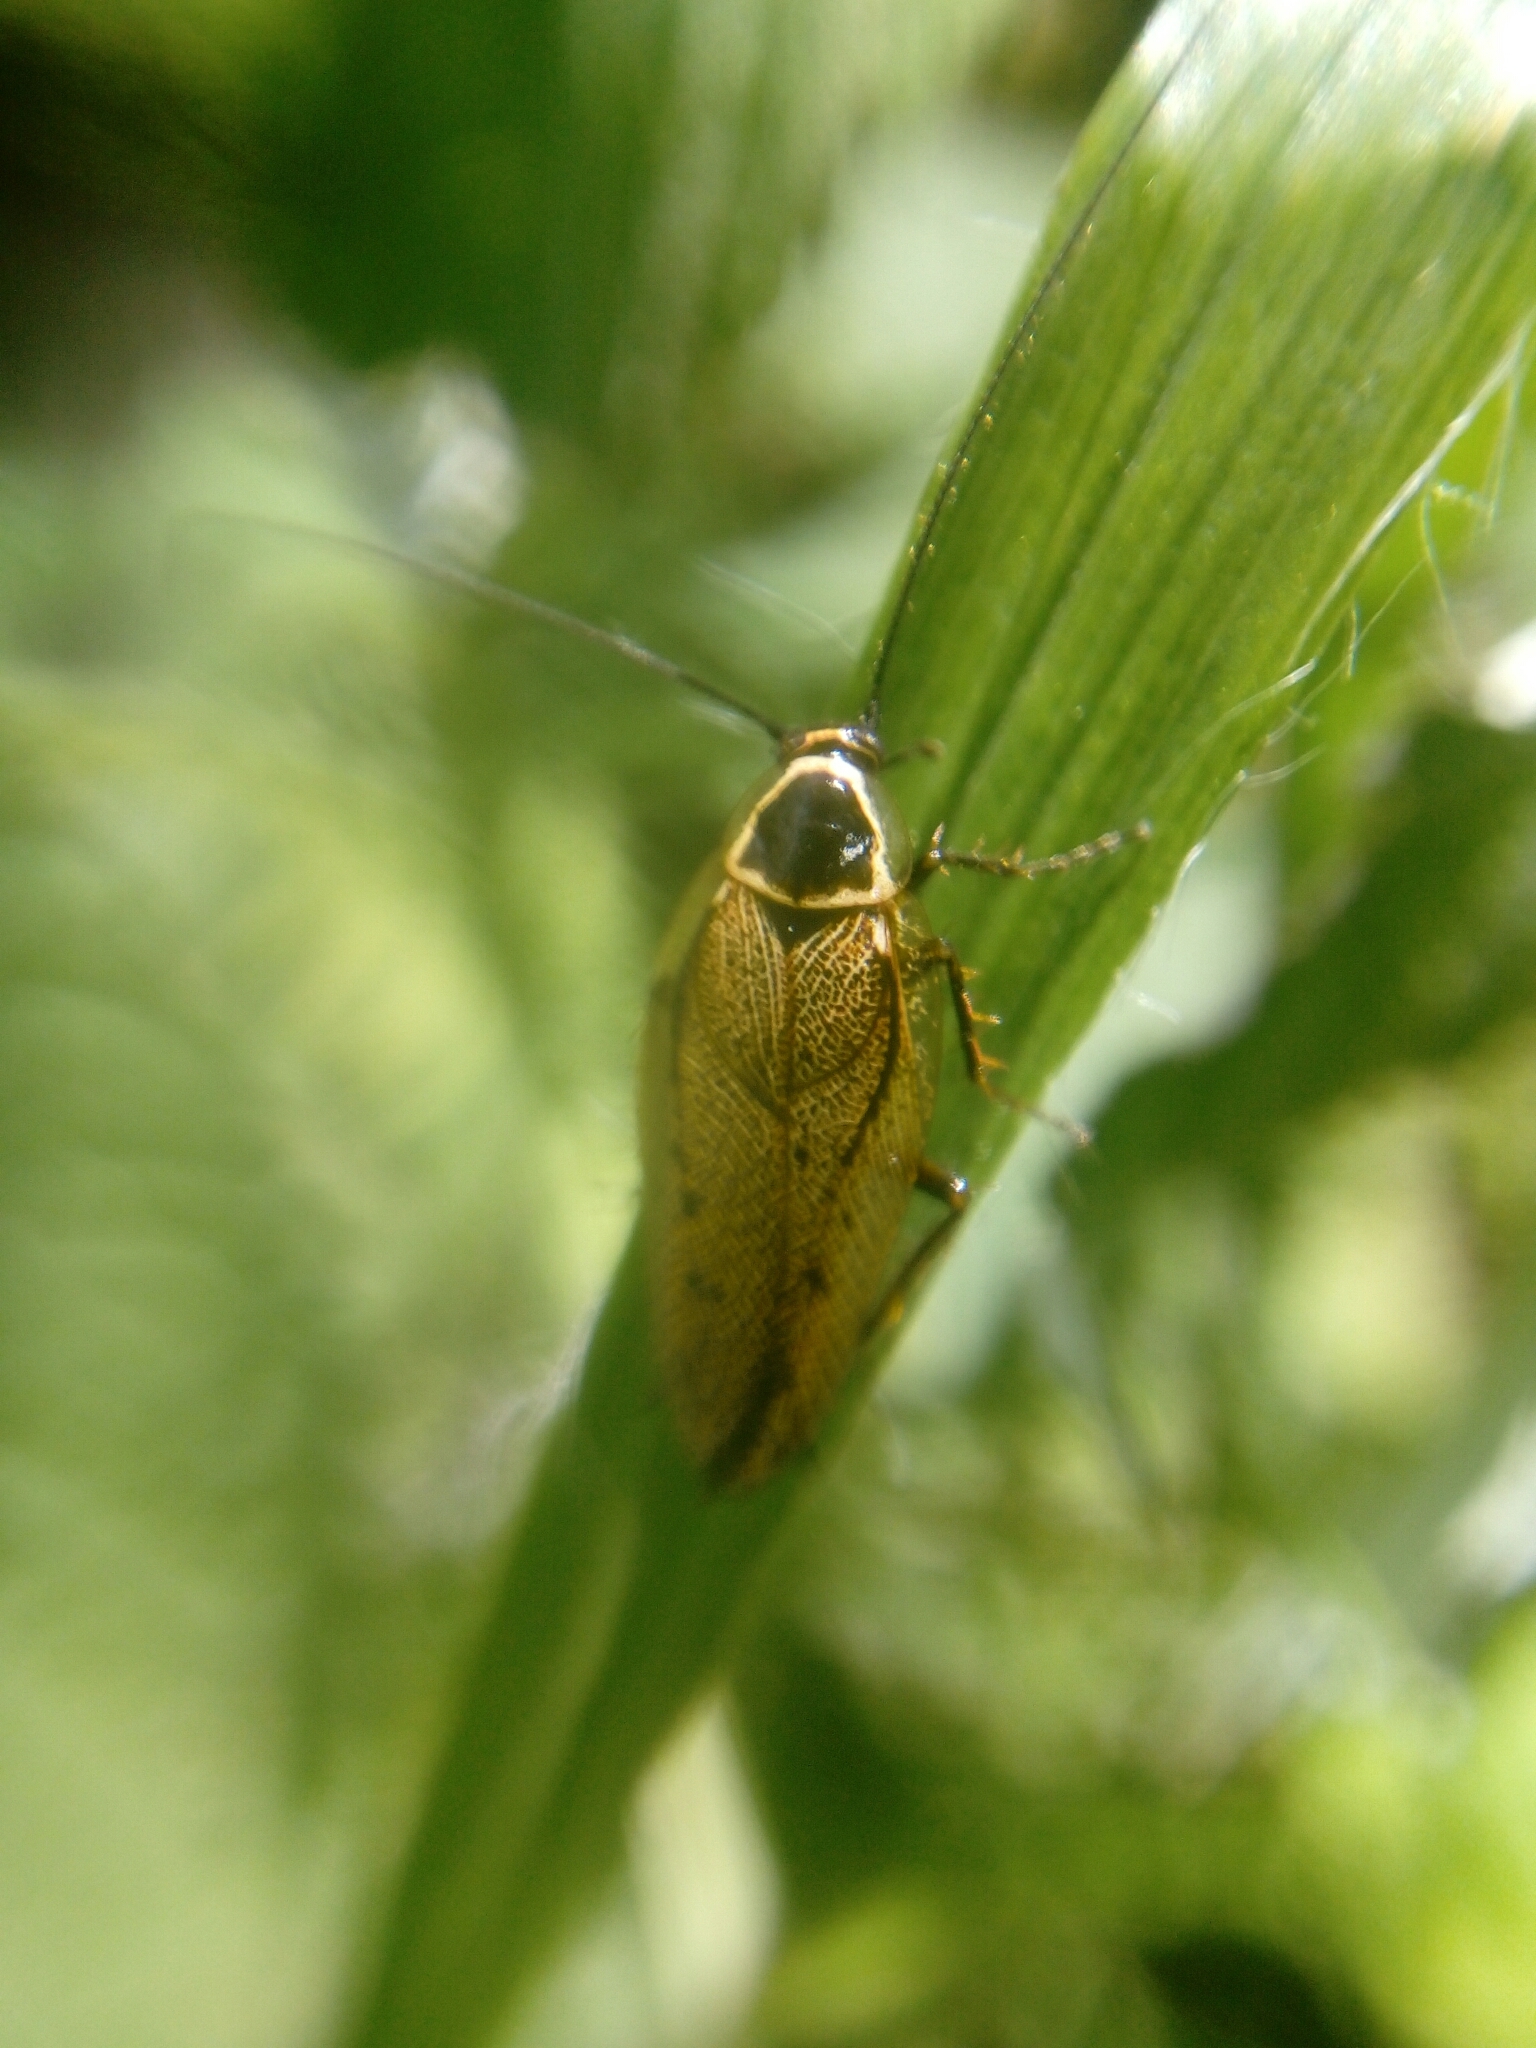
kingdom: Animalia
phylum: Arthropoda
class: Insecta
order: Blattodea
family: Ectobiidae
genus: Ectobius
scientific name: Ectobius sylvestris
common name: Forest cockroach
